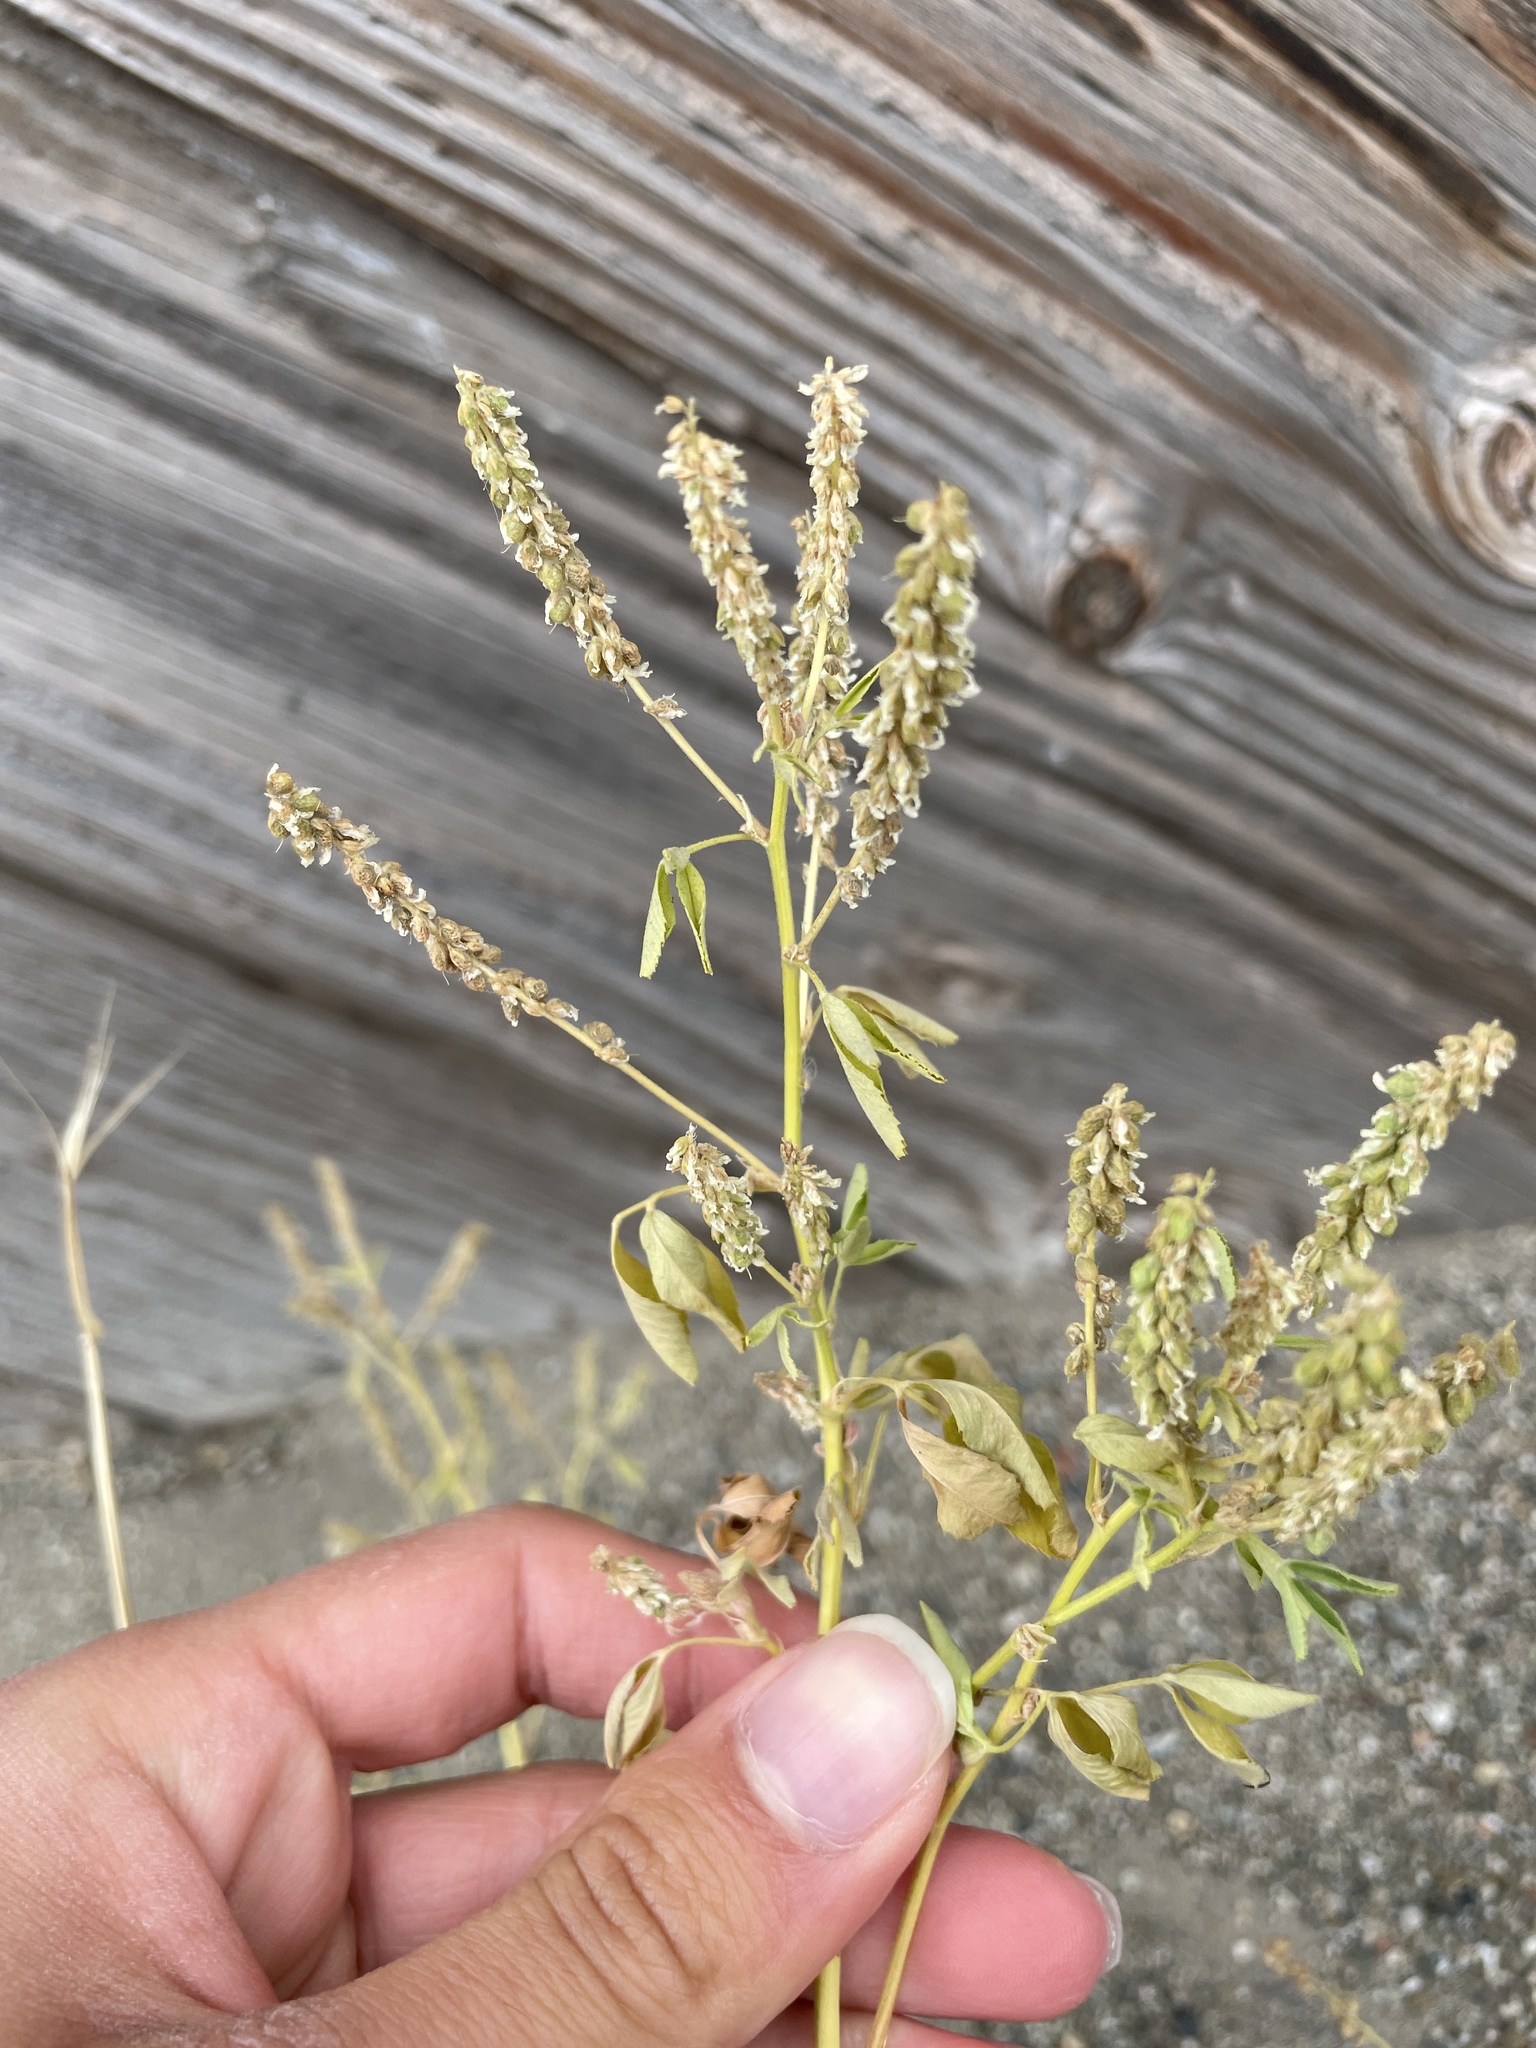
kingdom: Plantae
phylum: Tracheophyta
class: Magnoliopsida
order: Fabales
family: Fabaceae
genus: Melilotus
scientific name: Melilotus indicus
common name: Small melilot
